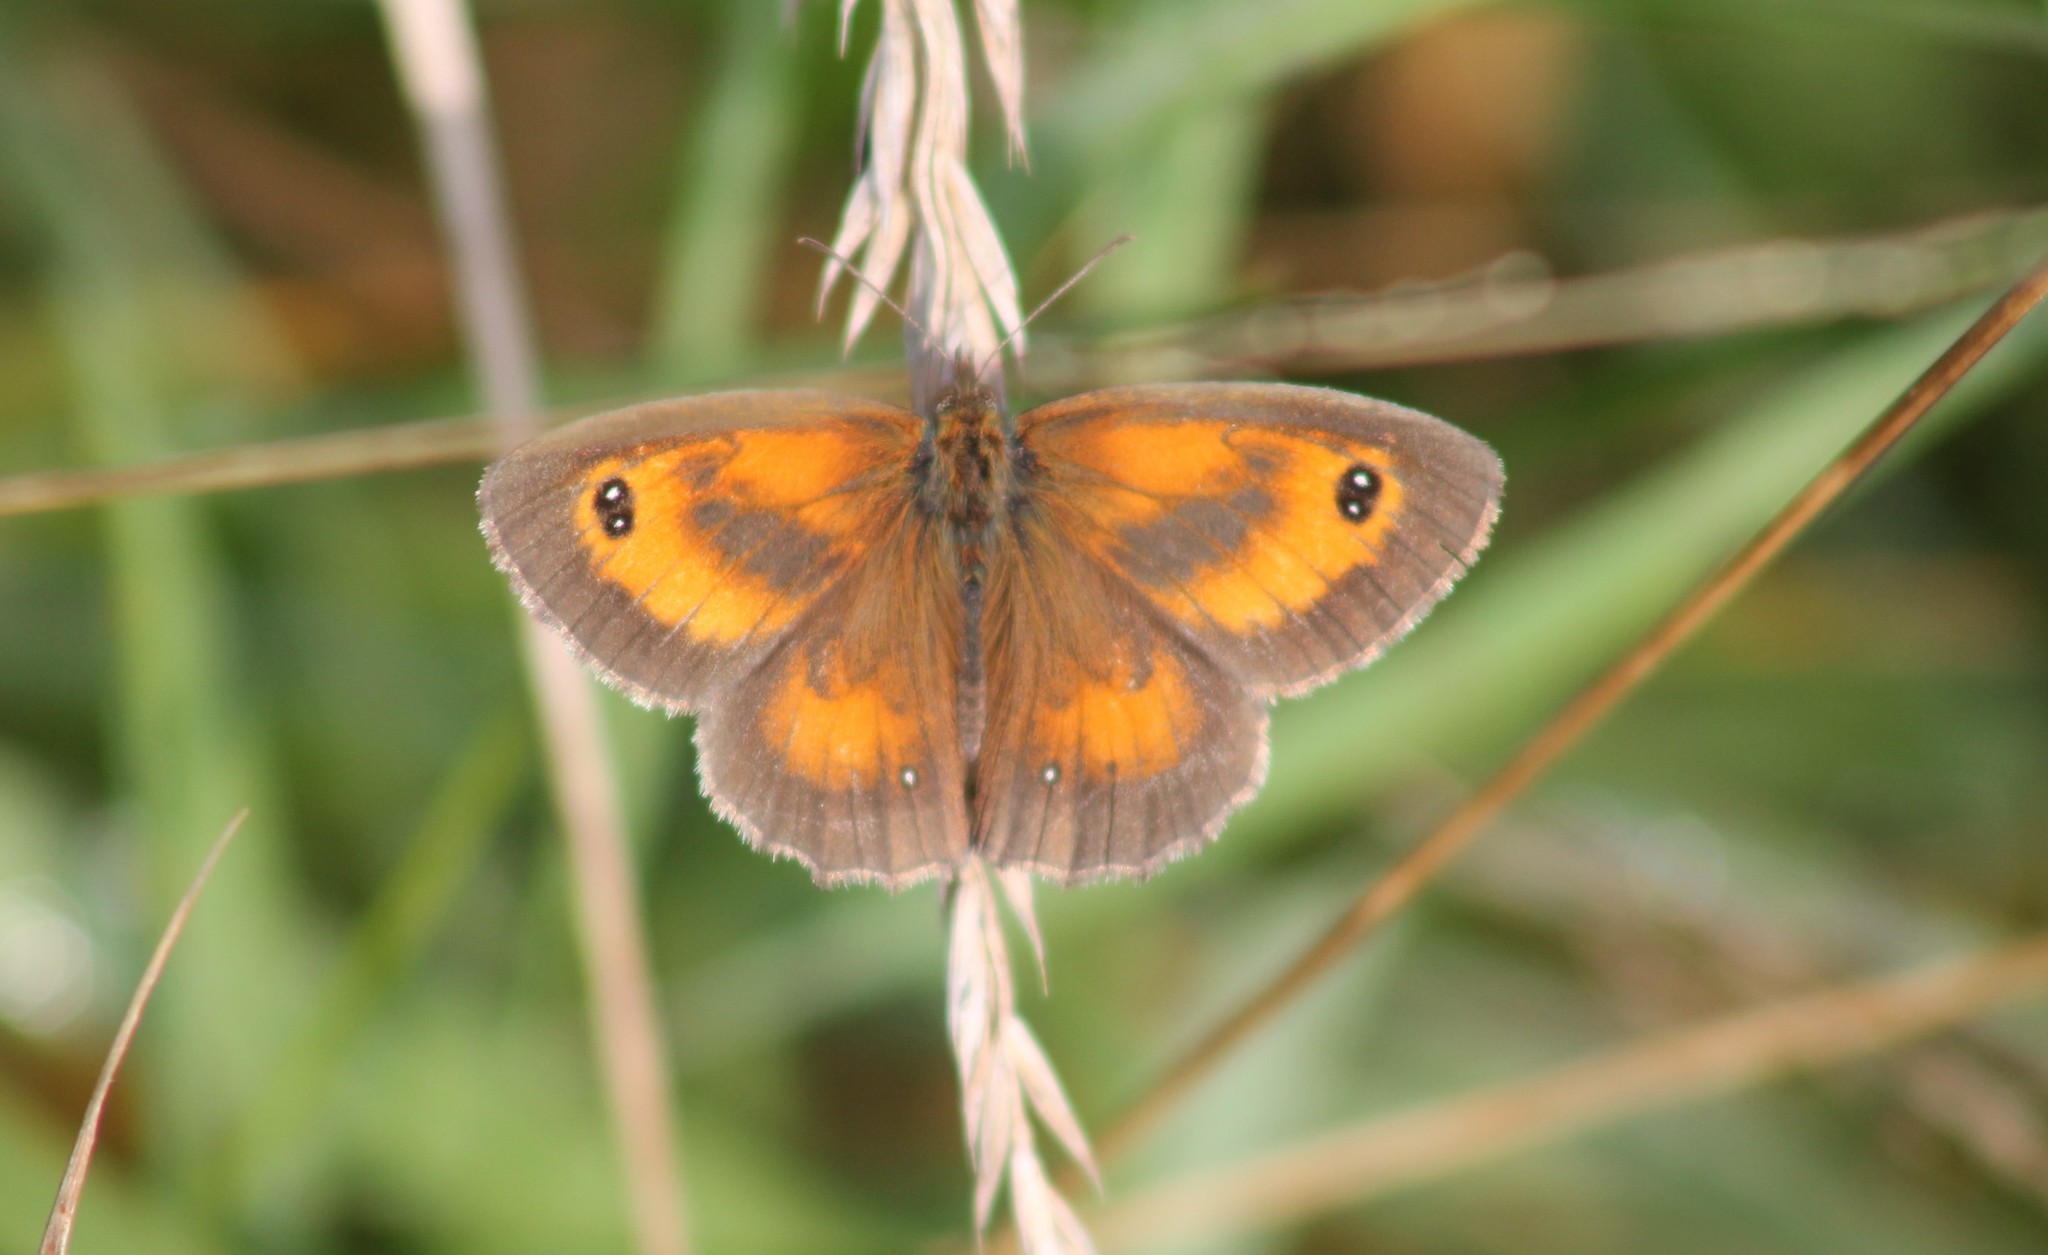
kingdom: Animalia
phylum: Arthropoda
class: Insecta
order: Lepidoptera
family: Nymphalidae
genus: Pyronia
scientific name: Pyronia tithonus
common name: Gatekeeper
